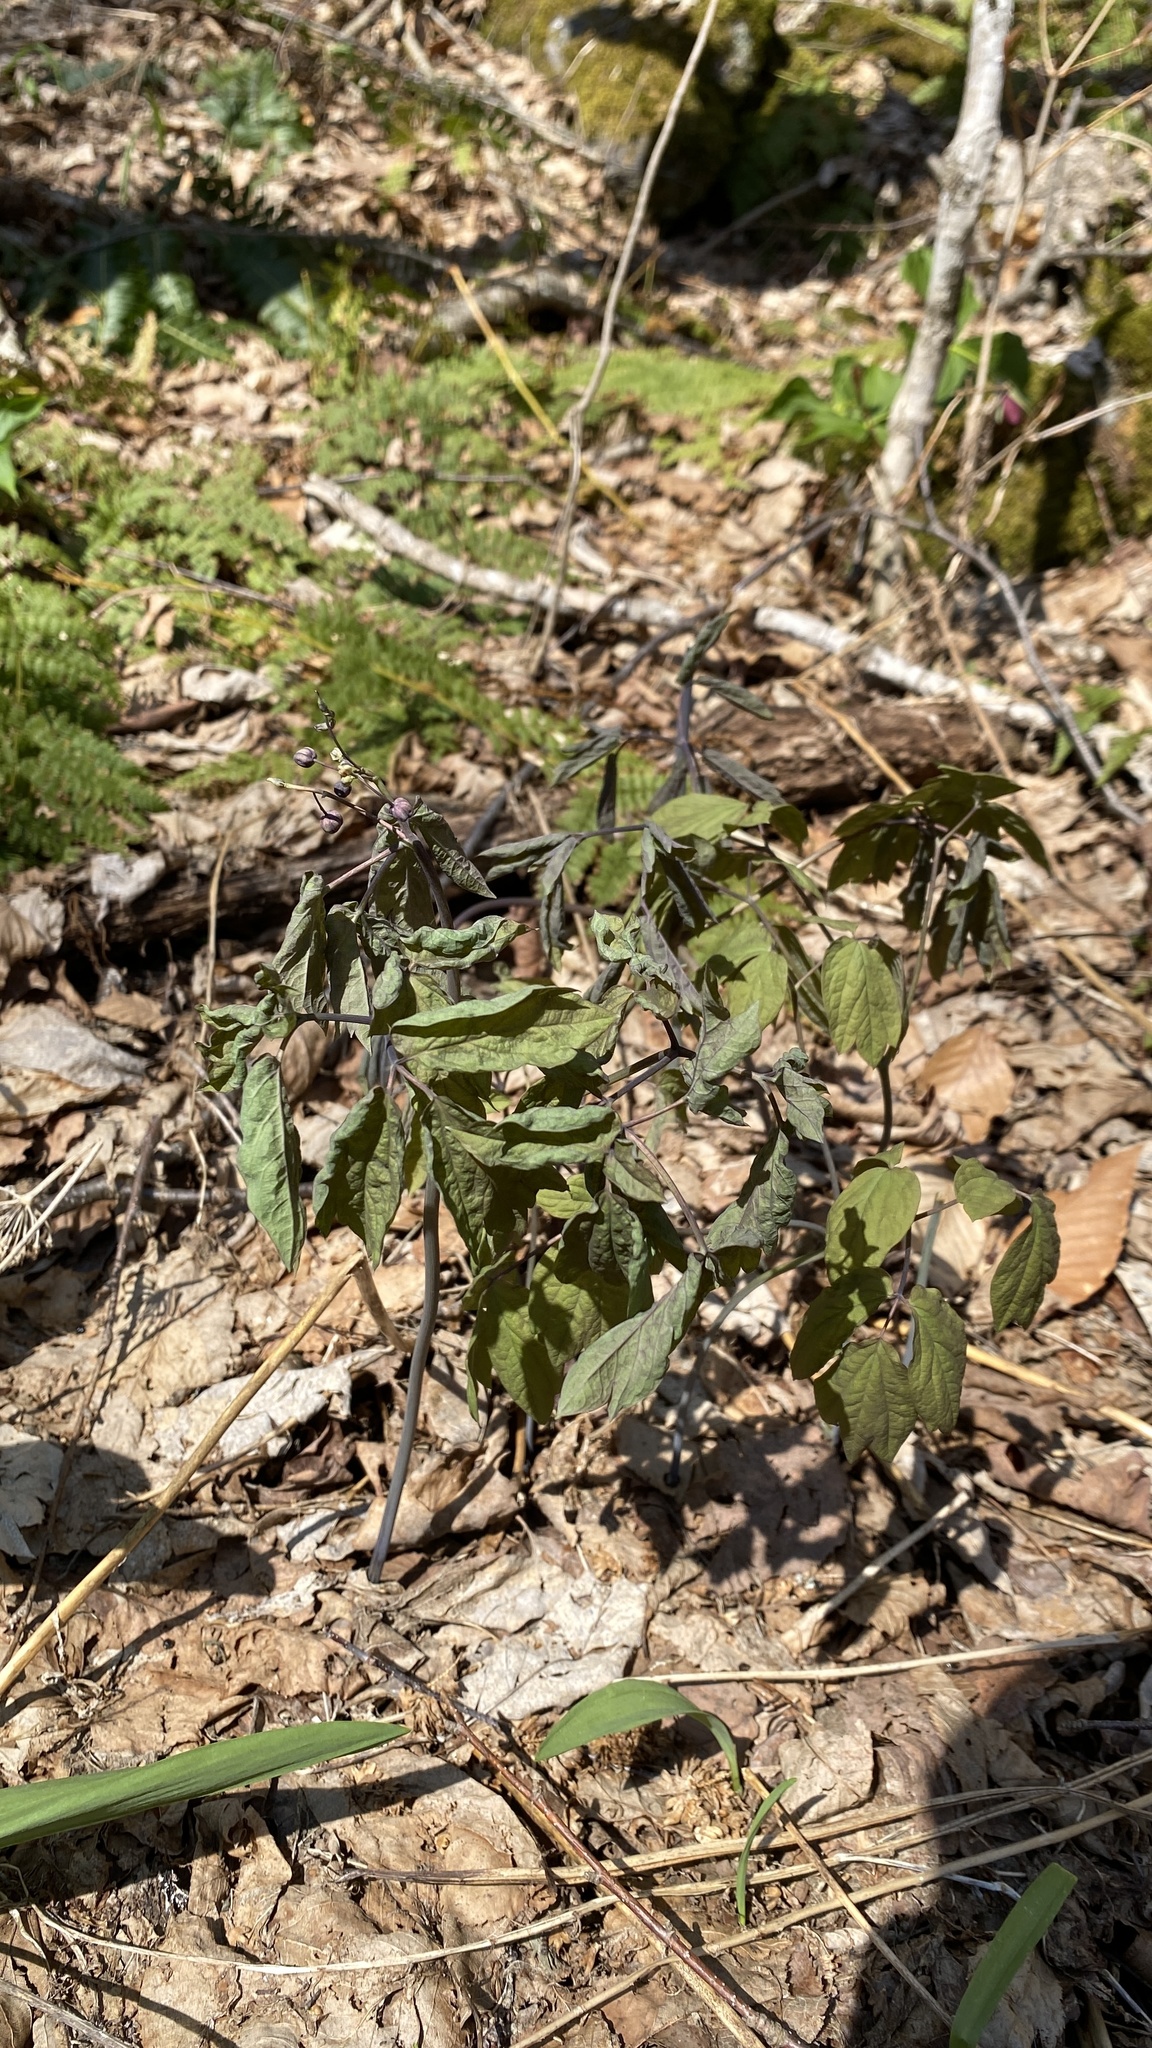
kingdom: Plantae
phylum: Tracheophyta
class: Magnoliopsida
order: Ranunculales
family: Berberidaceae
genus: Caulophyllum
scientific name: Caulophyllum giganteum
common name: Blue cohosh
